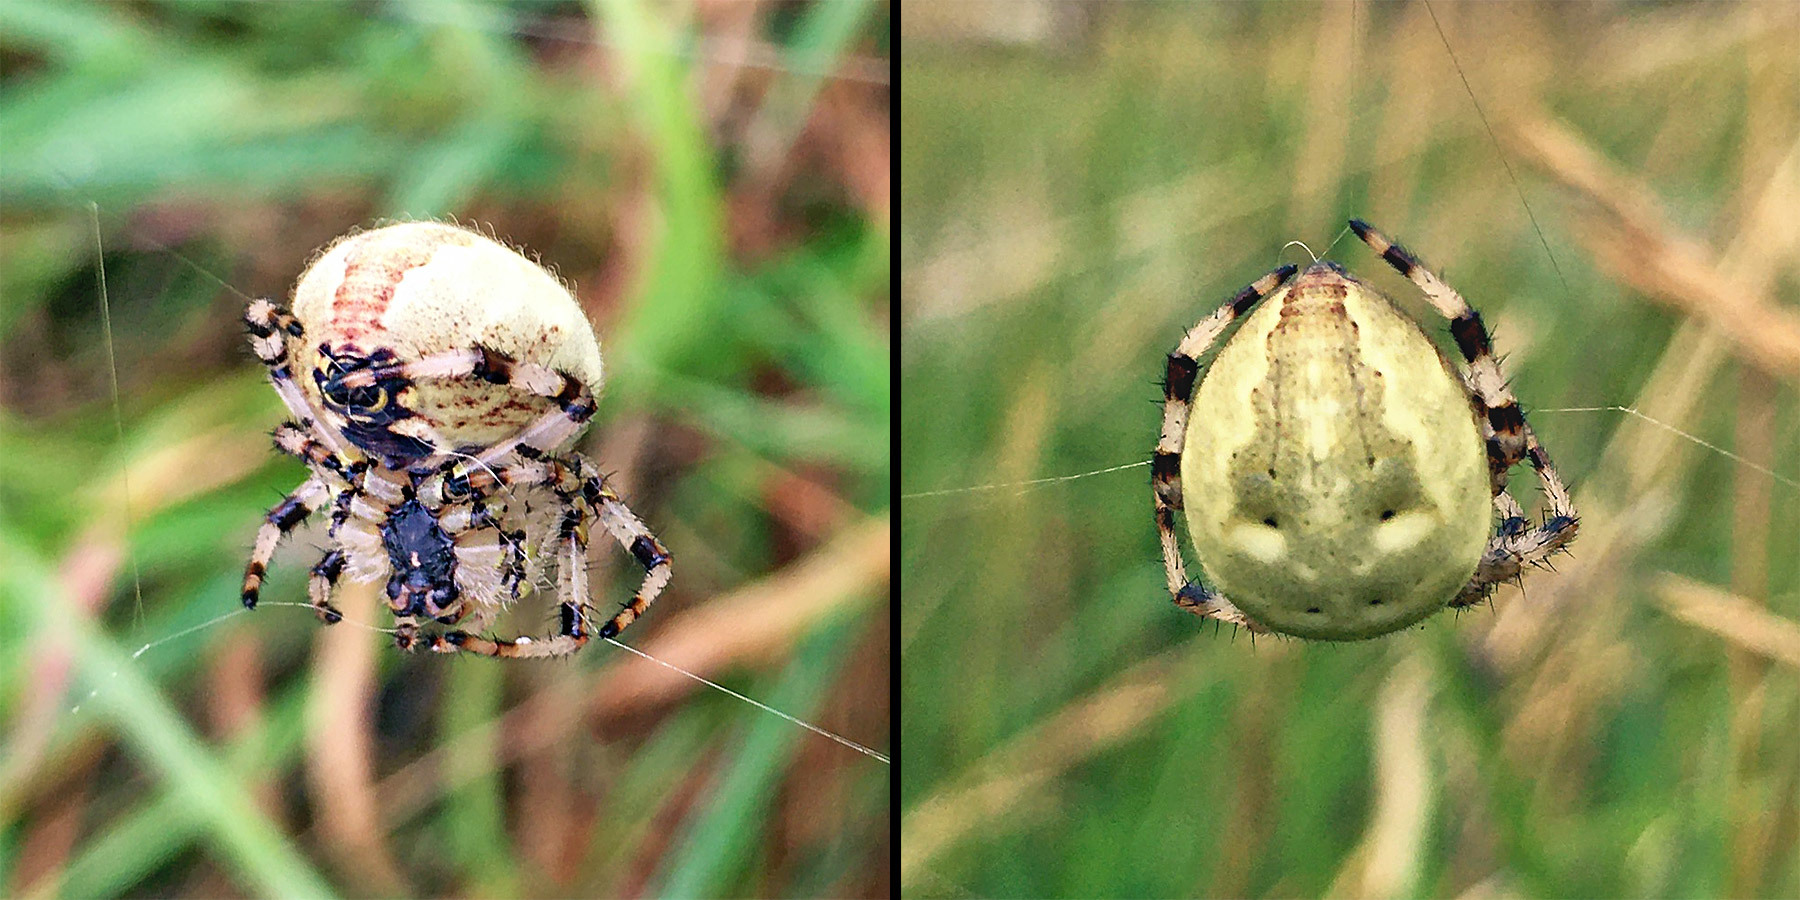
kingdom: Animalia
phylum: Arthropoda
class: Arachnida
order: Araneae
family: Araneidae
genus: Araneus
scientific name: Araneus quadratus
